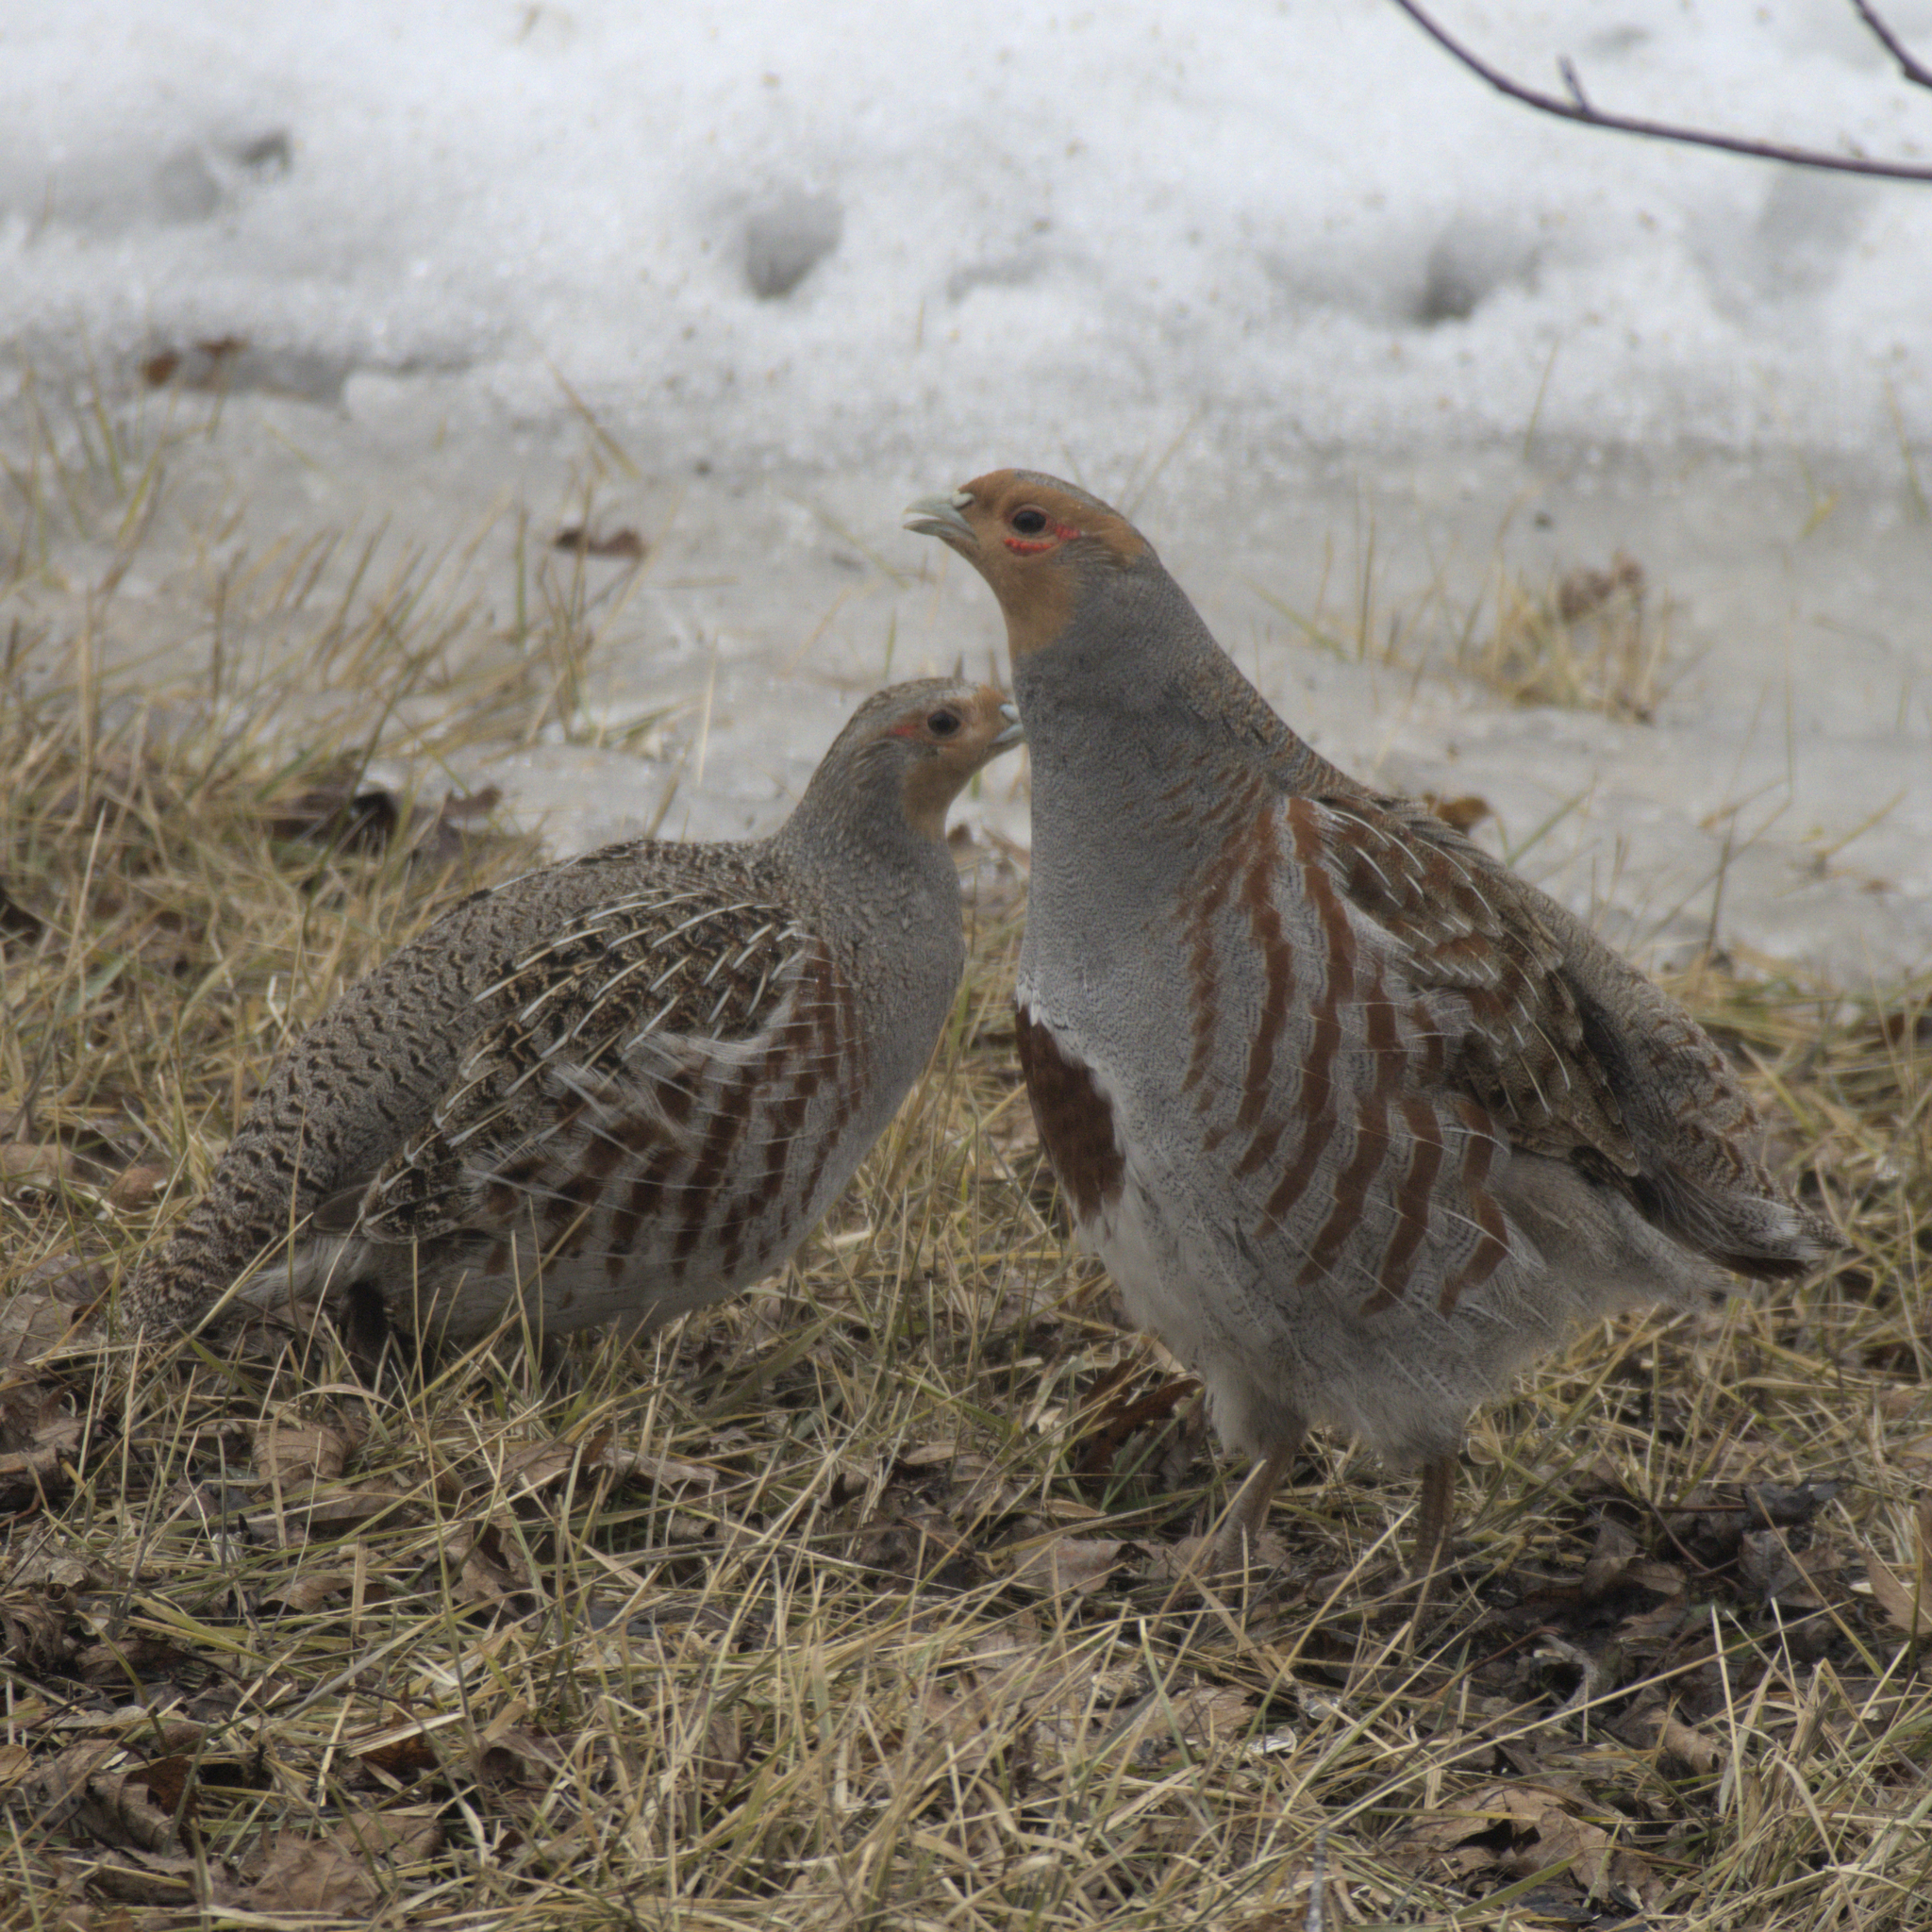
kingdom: Animalia
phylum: Chordata
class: Aves
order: Galliformes
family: Phasianidae
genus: Perdix
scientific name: Perdix perdix
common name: Grey partridge
